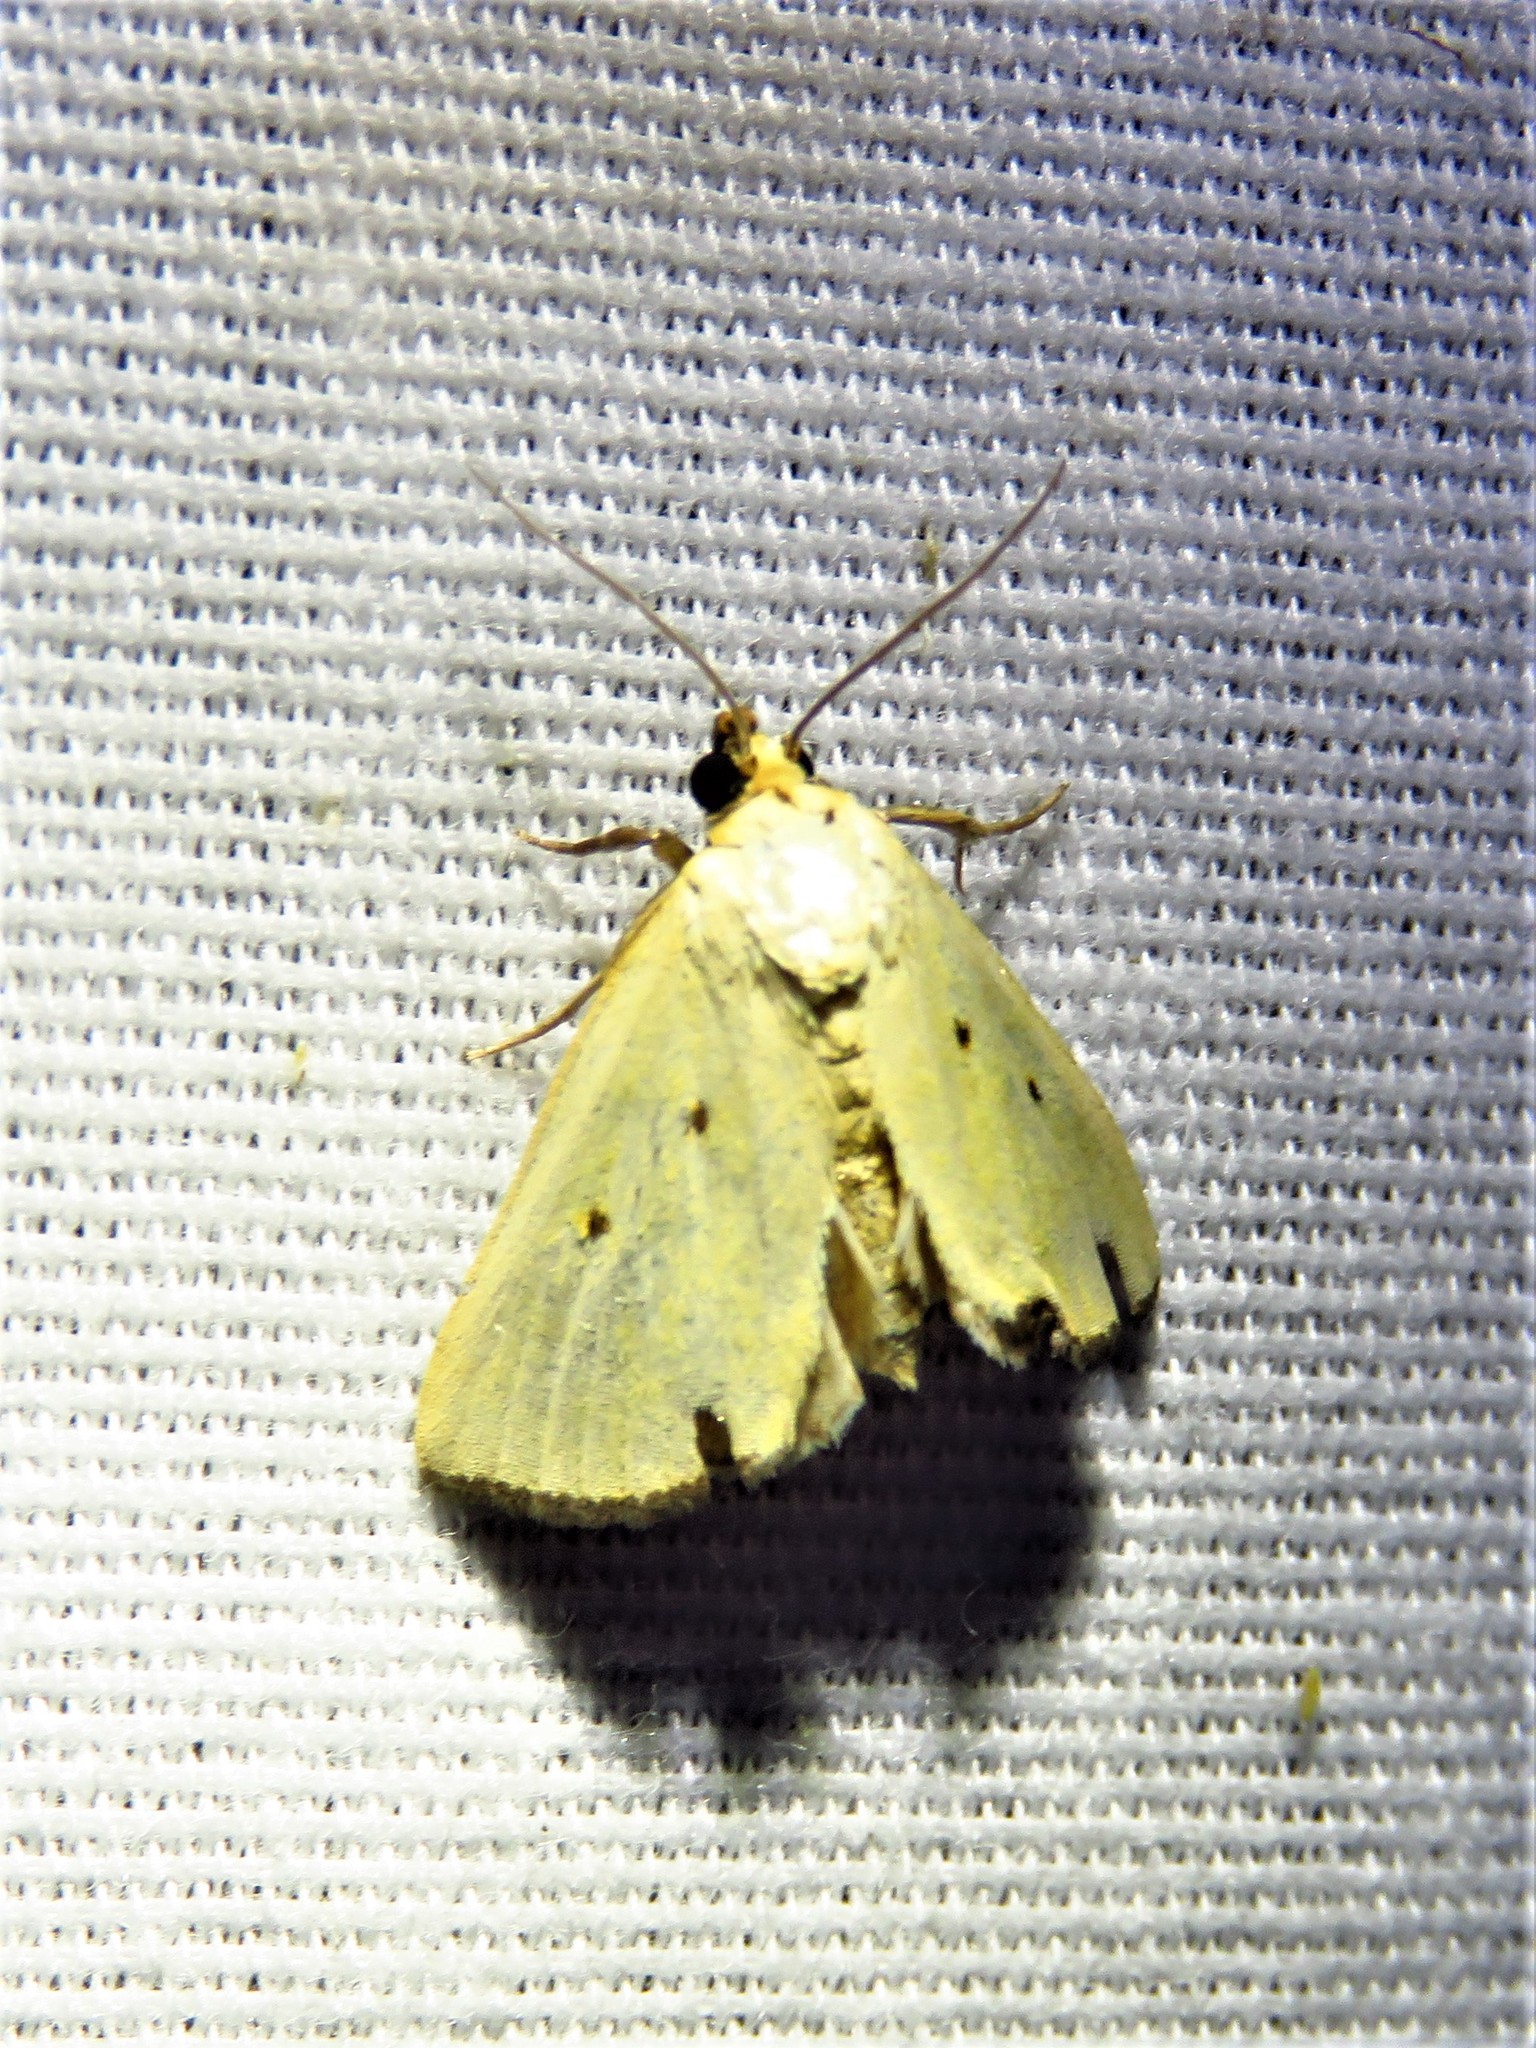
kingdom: Animalia
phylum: Arthropoda
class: Insecta
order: Lepidoptera
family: Noctuidae
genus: Marimatha
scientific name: Marimatha nigrofimbria
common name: Black-bordered lemon moth
